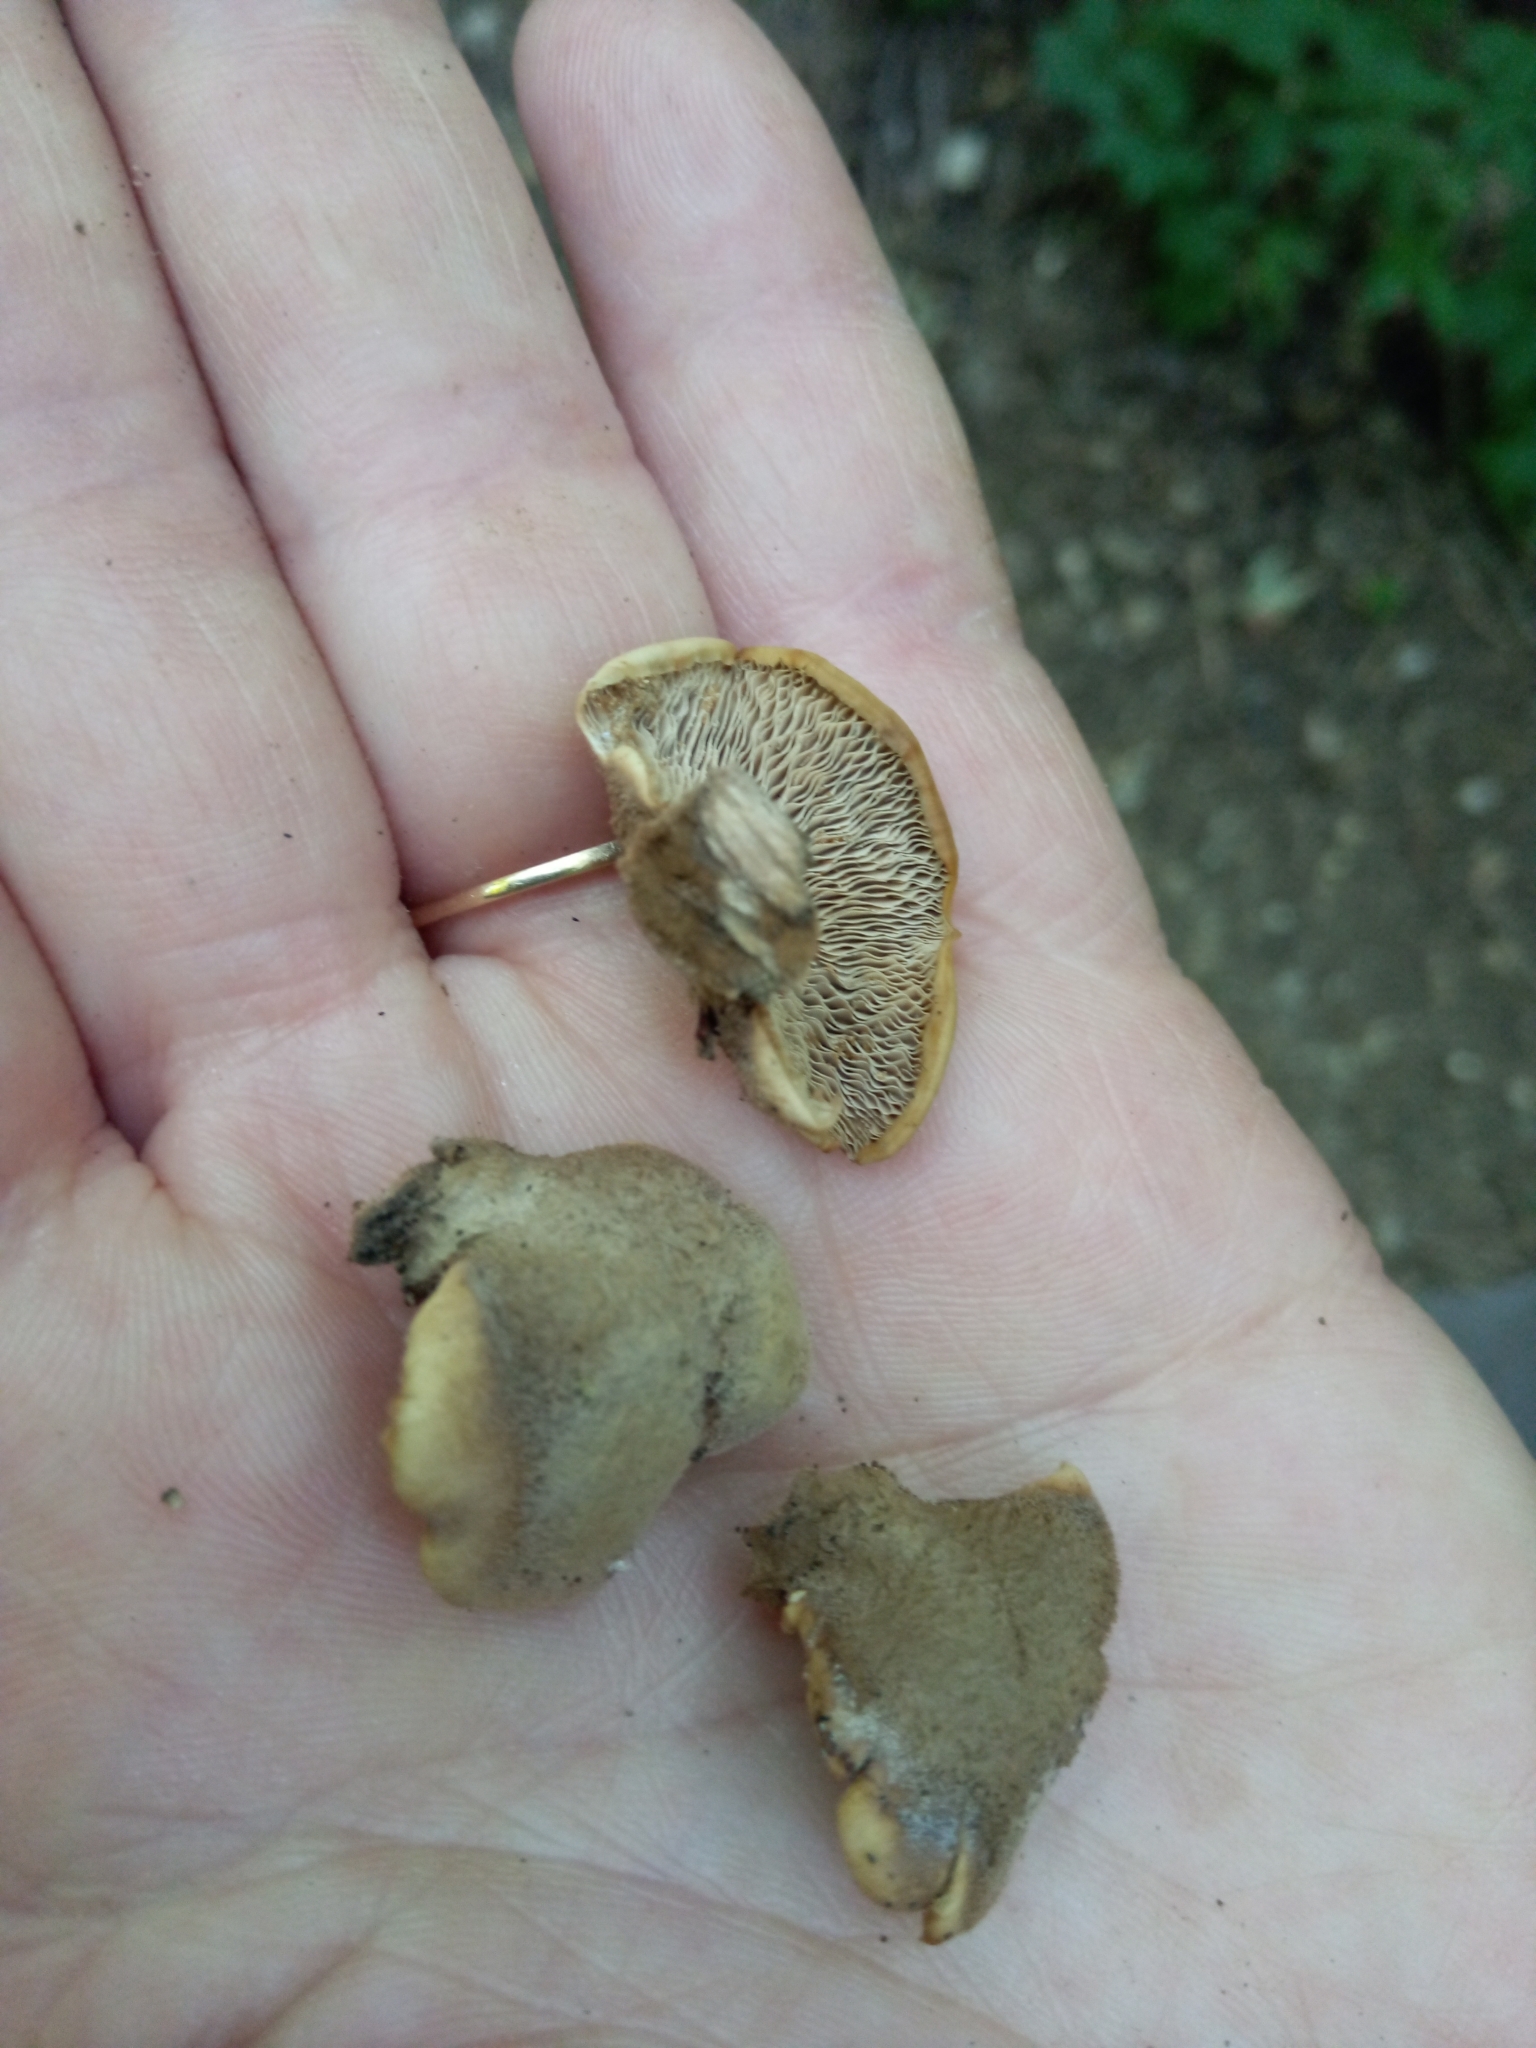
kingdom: Fungi
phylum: Basidiomycota
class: Agaricomycetes
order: Russulales
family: Auriscalpiaceae
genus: Lentinellus
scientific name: Lentinellus castoreus
